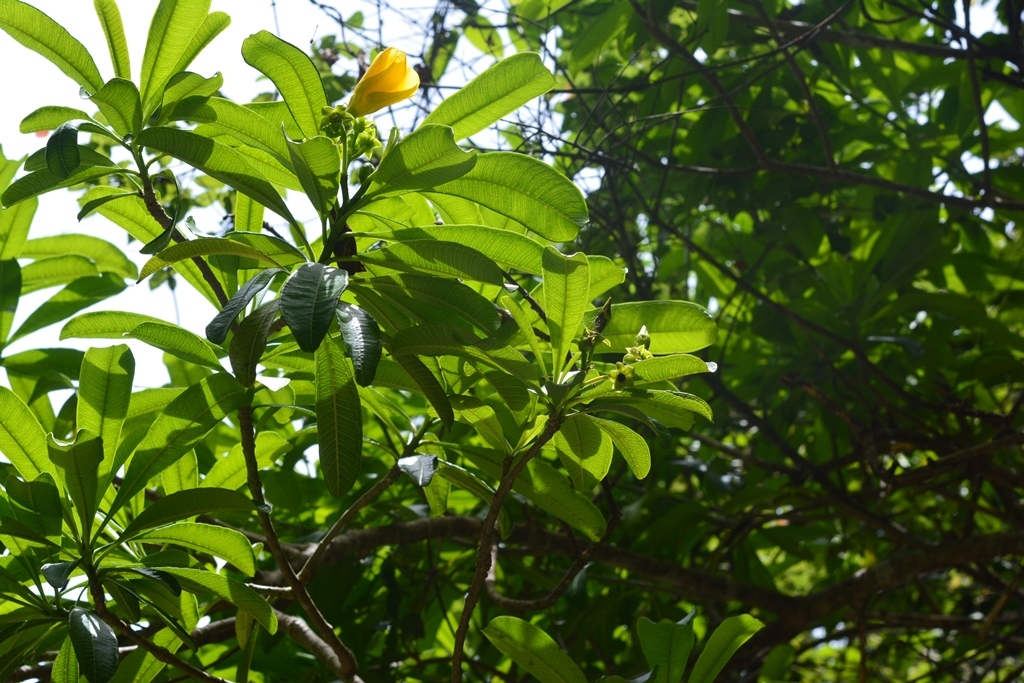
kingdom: Plantae
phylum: Tracheophyta
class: Magnoliopsida
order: Gentianales
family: Apocynaceae
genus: Cascabela
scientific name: Cascabela ovata
